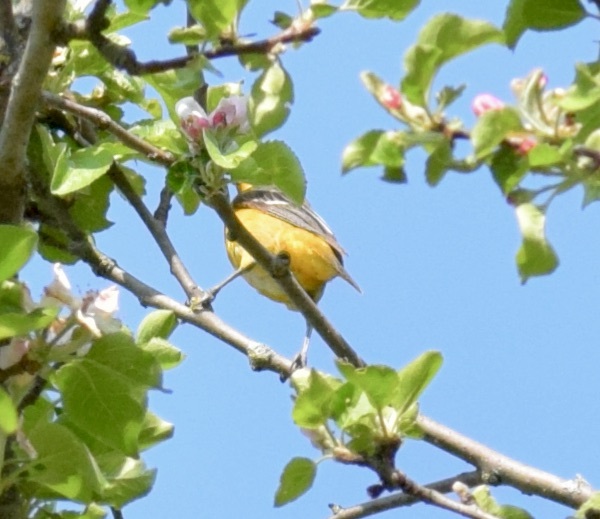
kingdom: Animalia
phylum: Chordata
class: Aves
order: Passeriformes
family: Icteridae
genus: Icterus
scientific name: Icterus galbula
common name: Baltimore oriole
